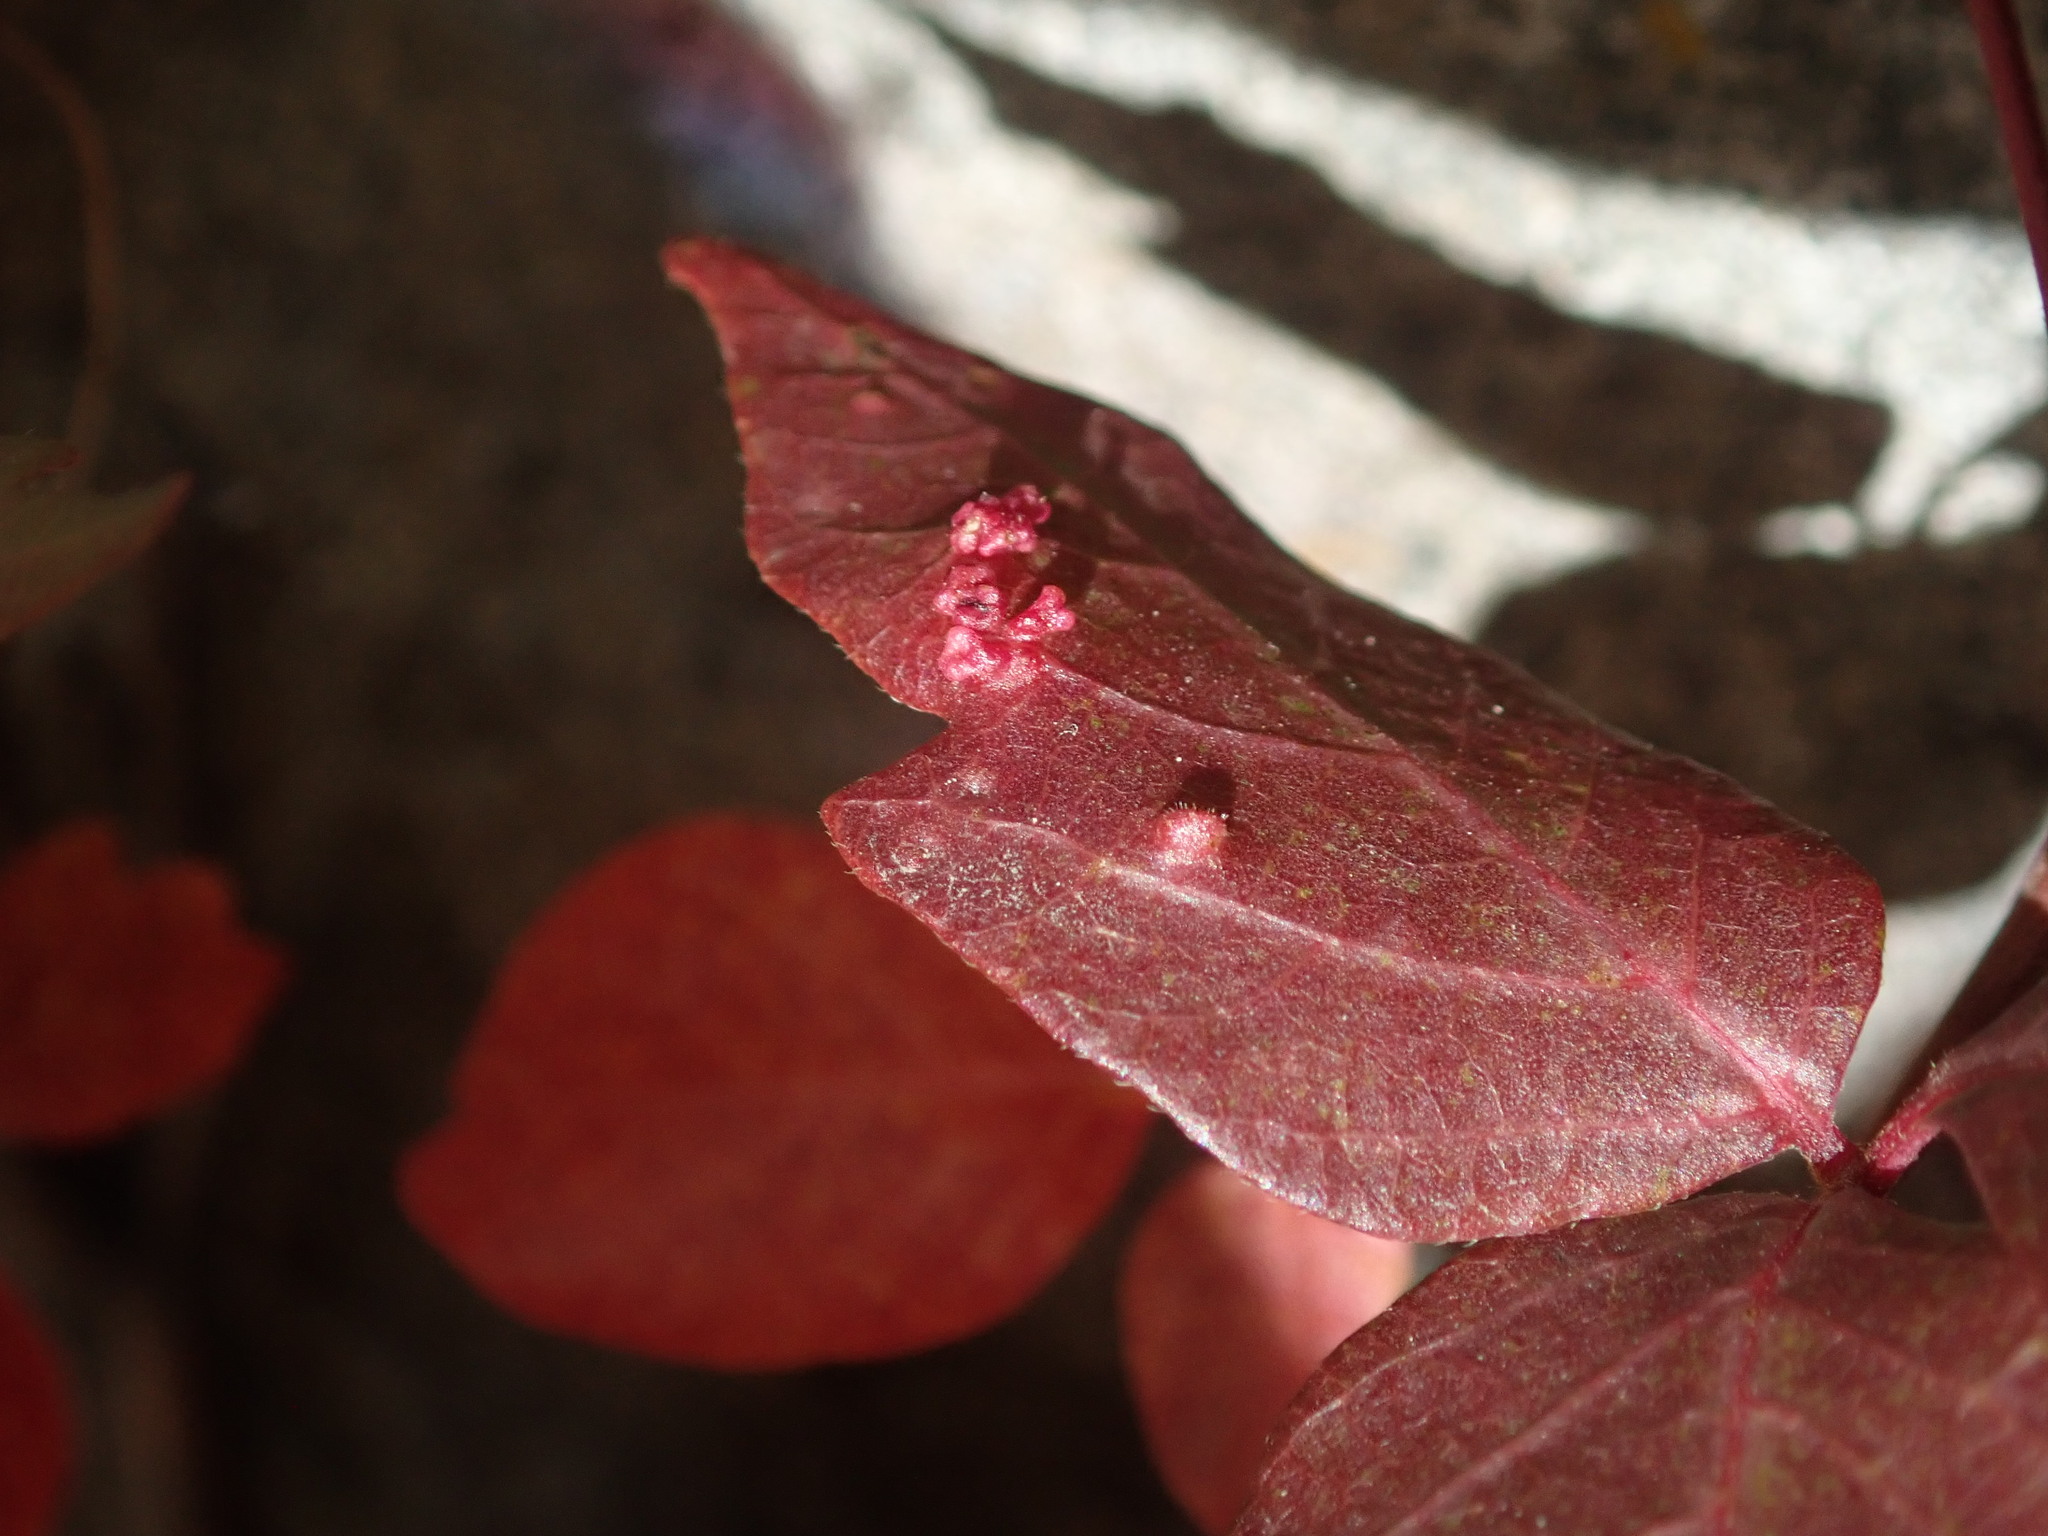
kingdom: Animalia
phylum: Arthropoda
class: Arachnida
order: Trombidiformes
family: Eriophyidae
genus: Aculops
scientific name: Aculops
